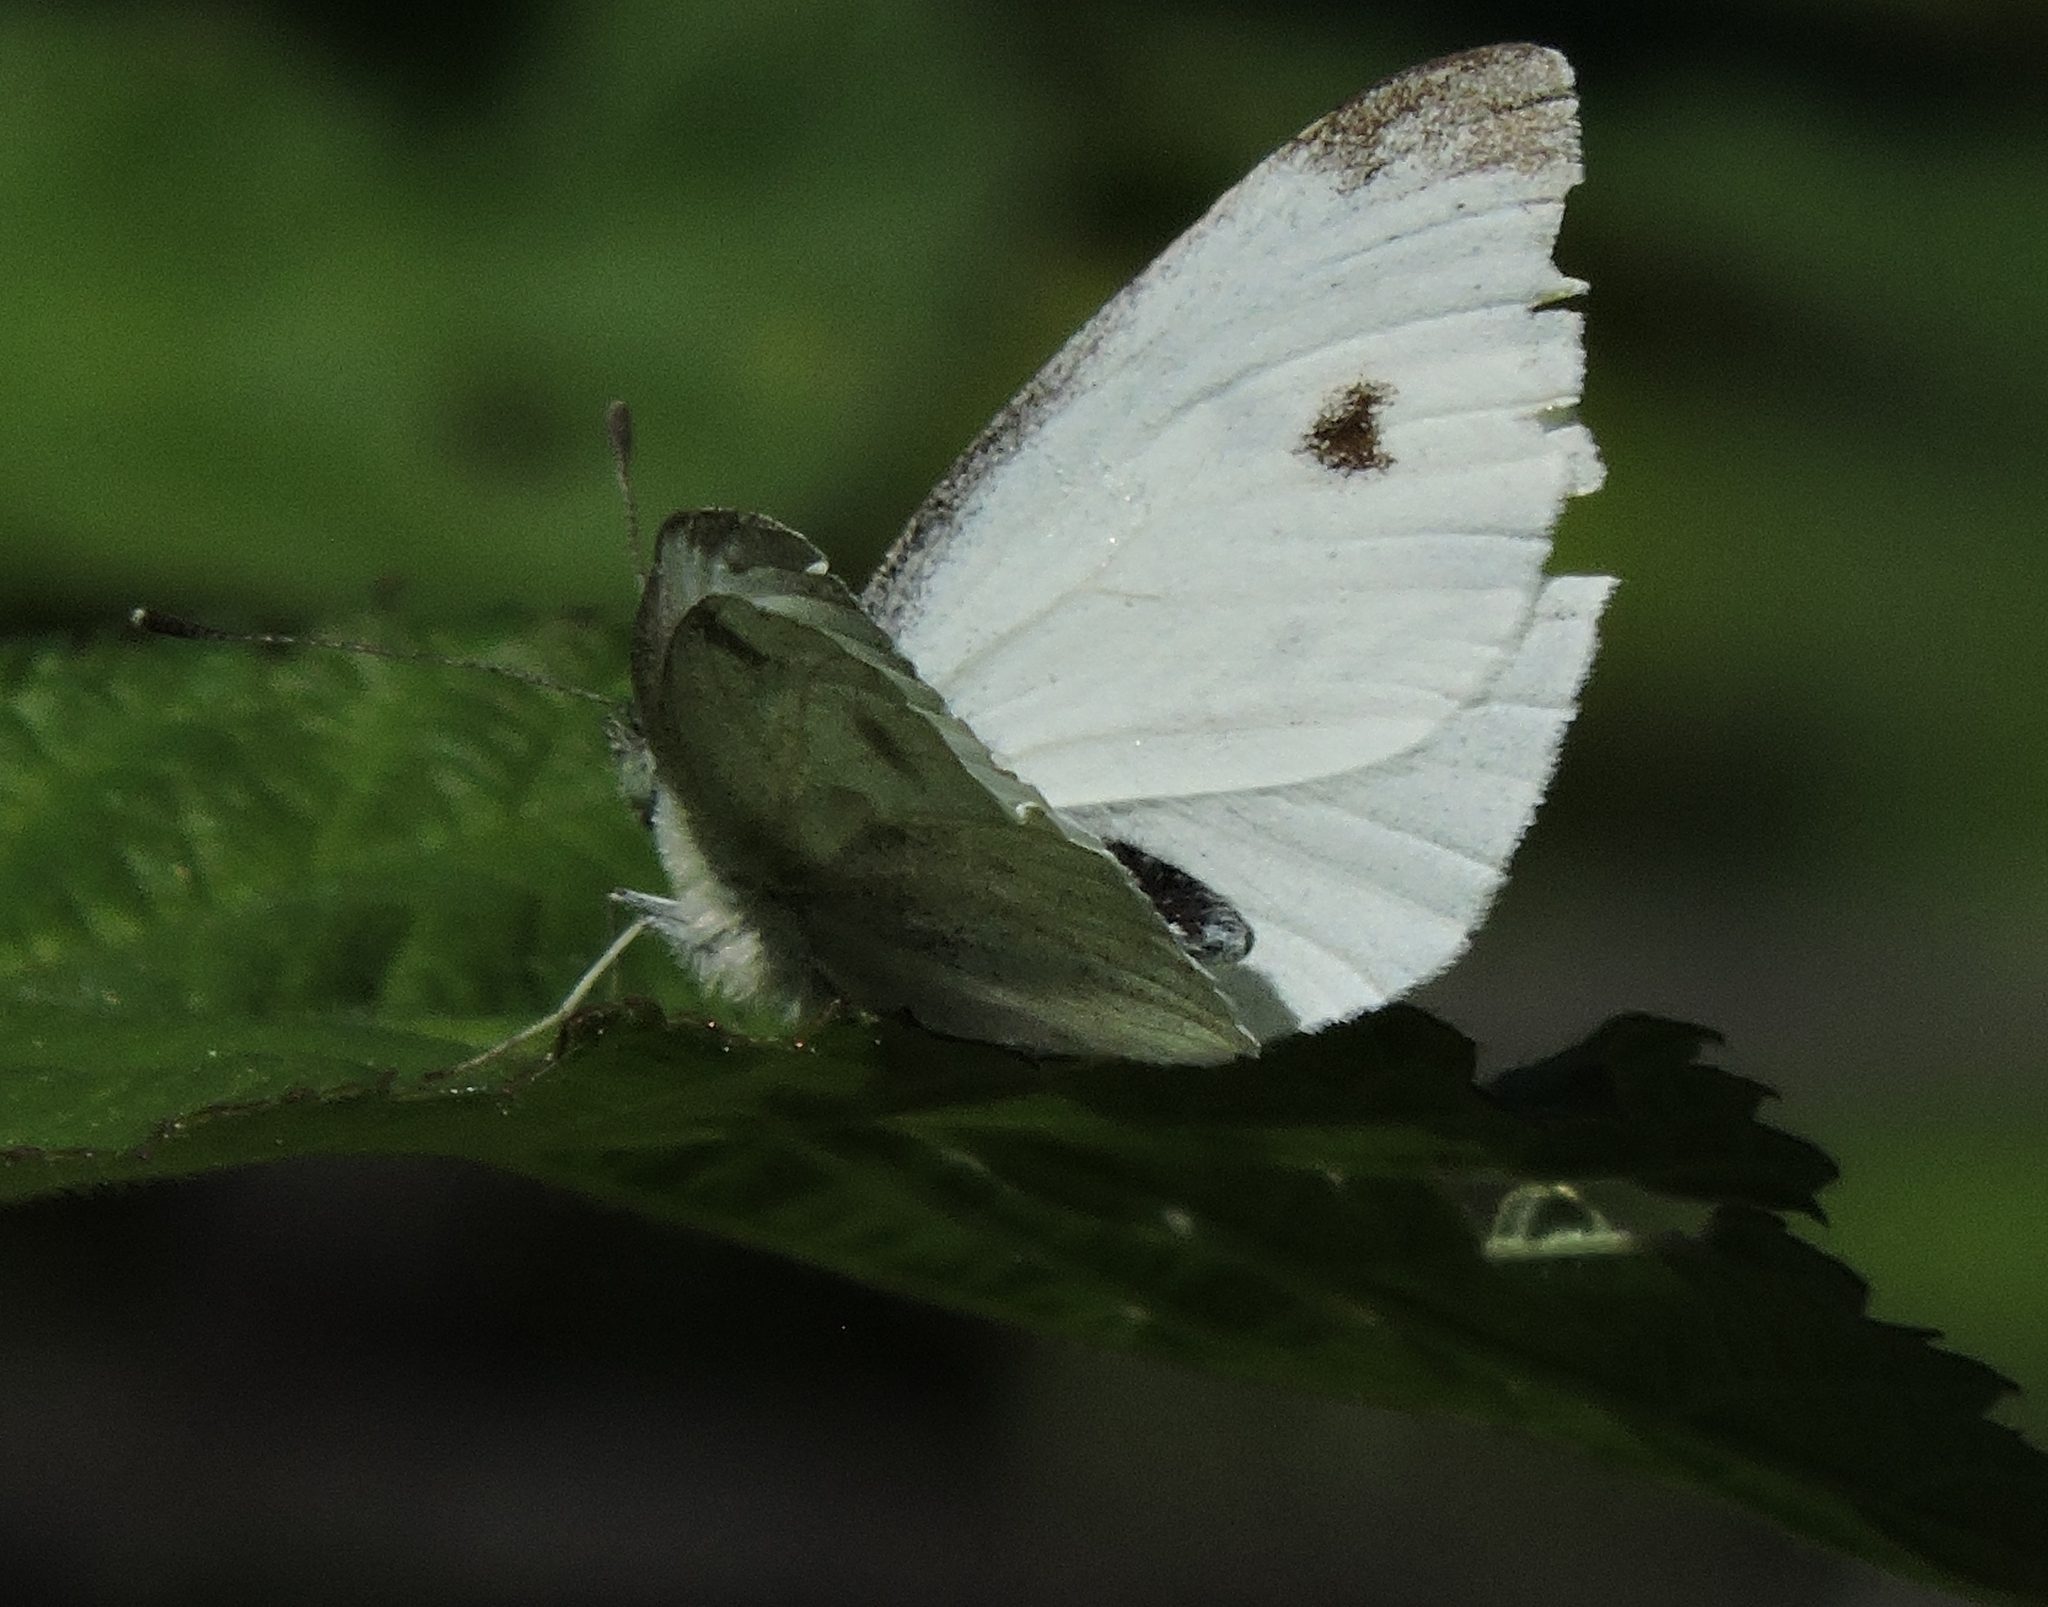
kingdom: Animalia
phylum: Arthropoda
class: Insecta
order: Lepidoptera
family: Pieridae
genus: Pieris
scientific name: Pieris rapae
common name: Small white
